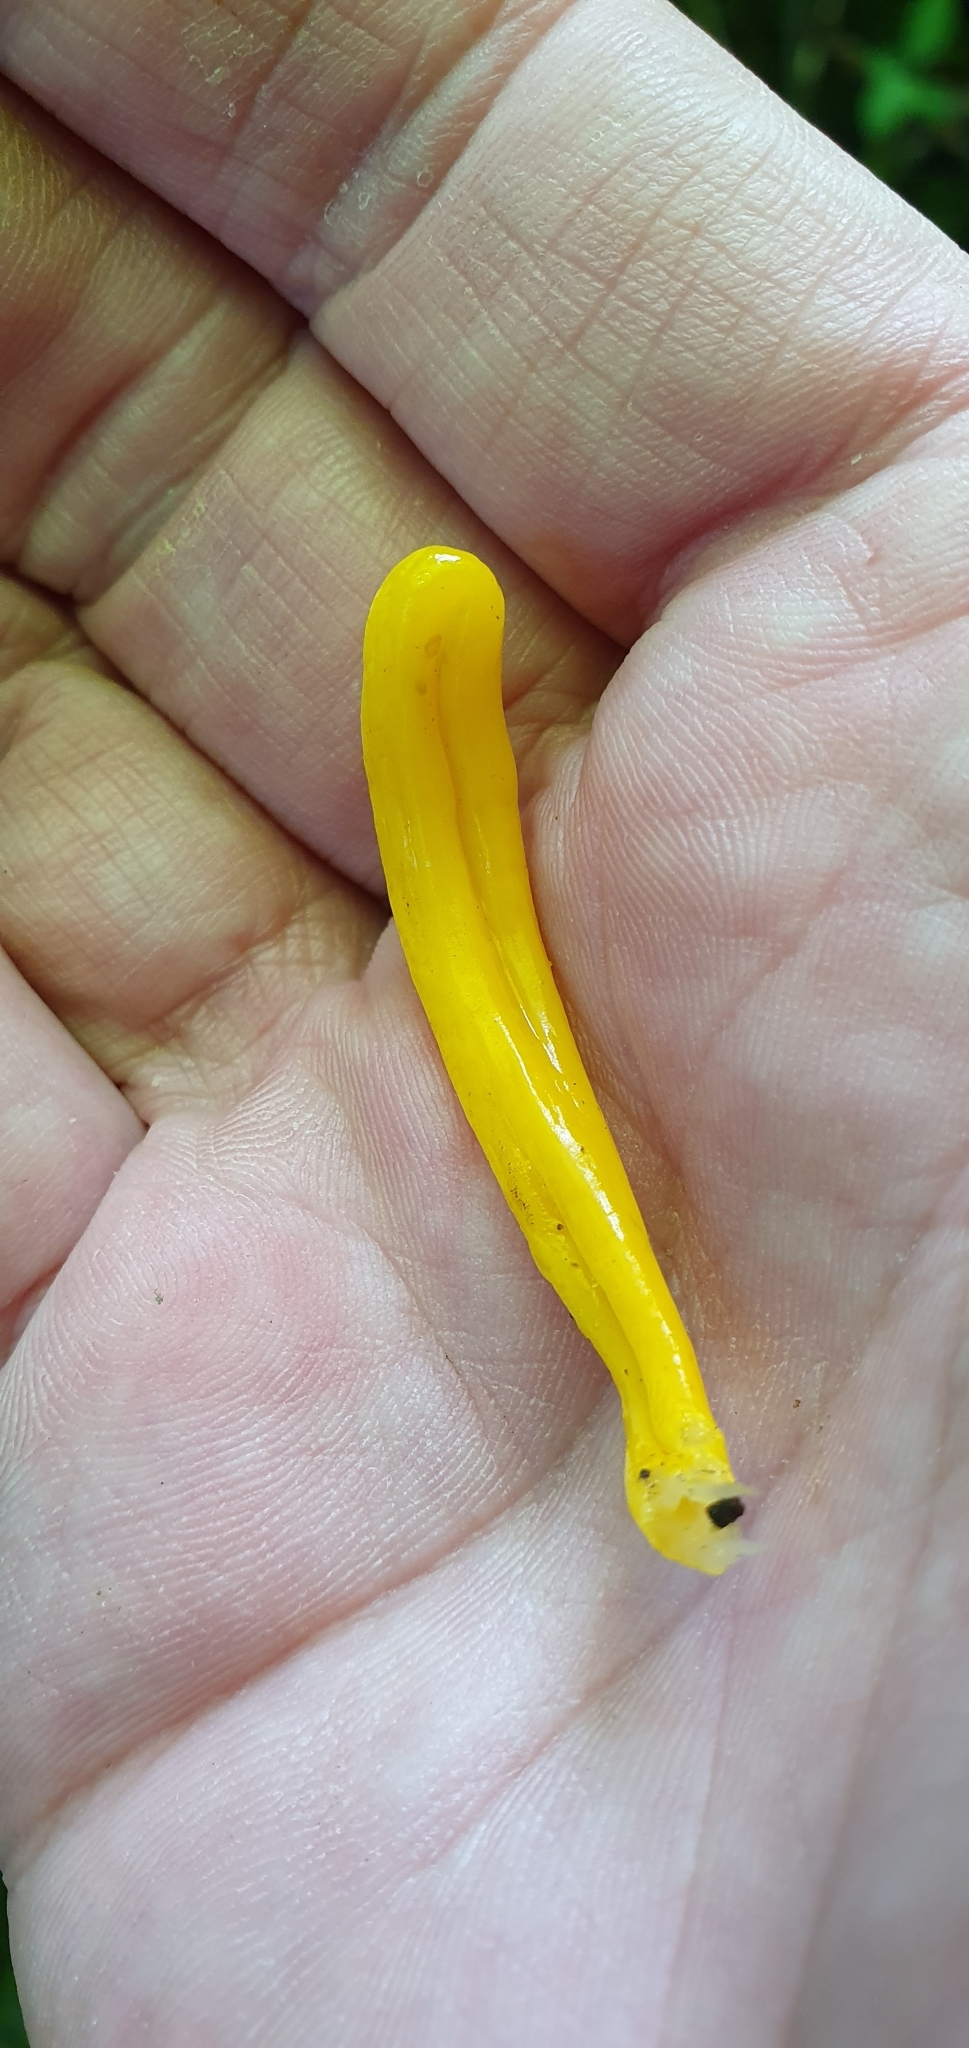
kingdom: Fungi
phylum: Basidiomycota
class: Agaricomycetes
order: Agaricales
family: Clavariaceae
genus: Clavulinopsis
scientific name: Clavulinopsis helvola
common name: Yellow club
